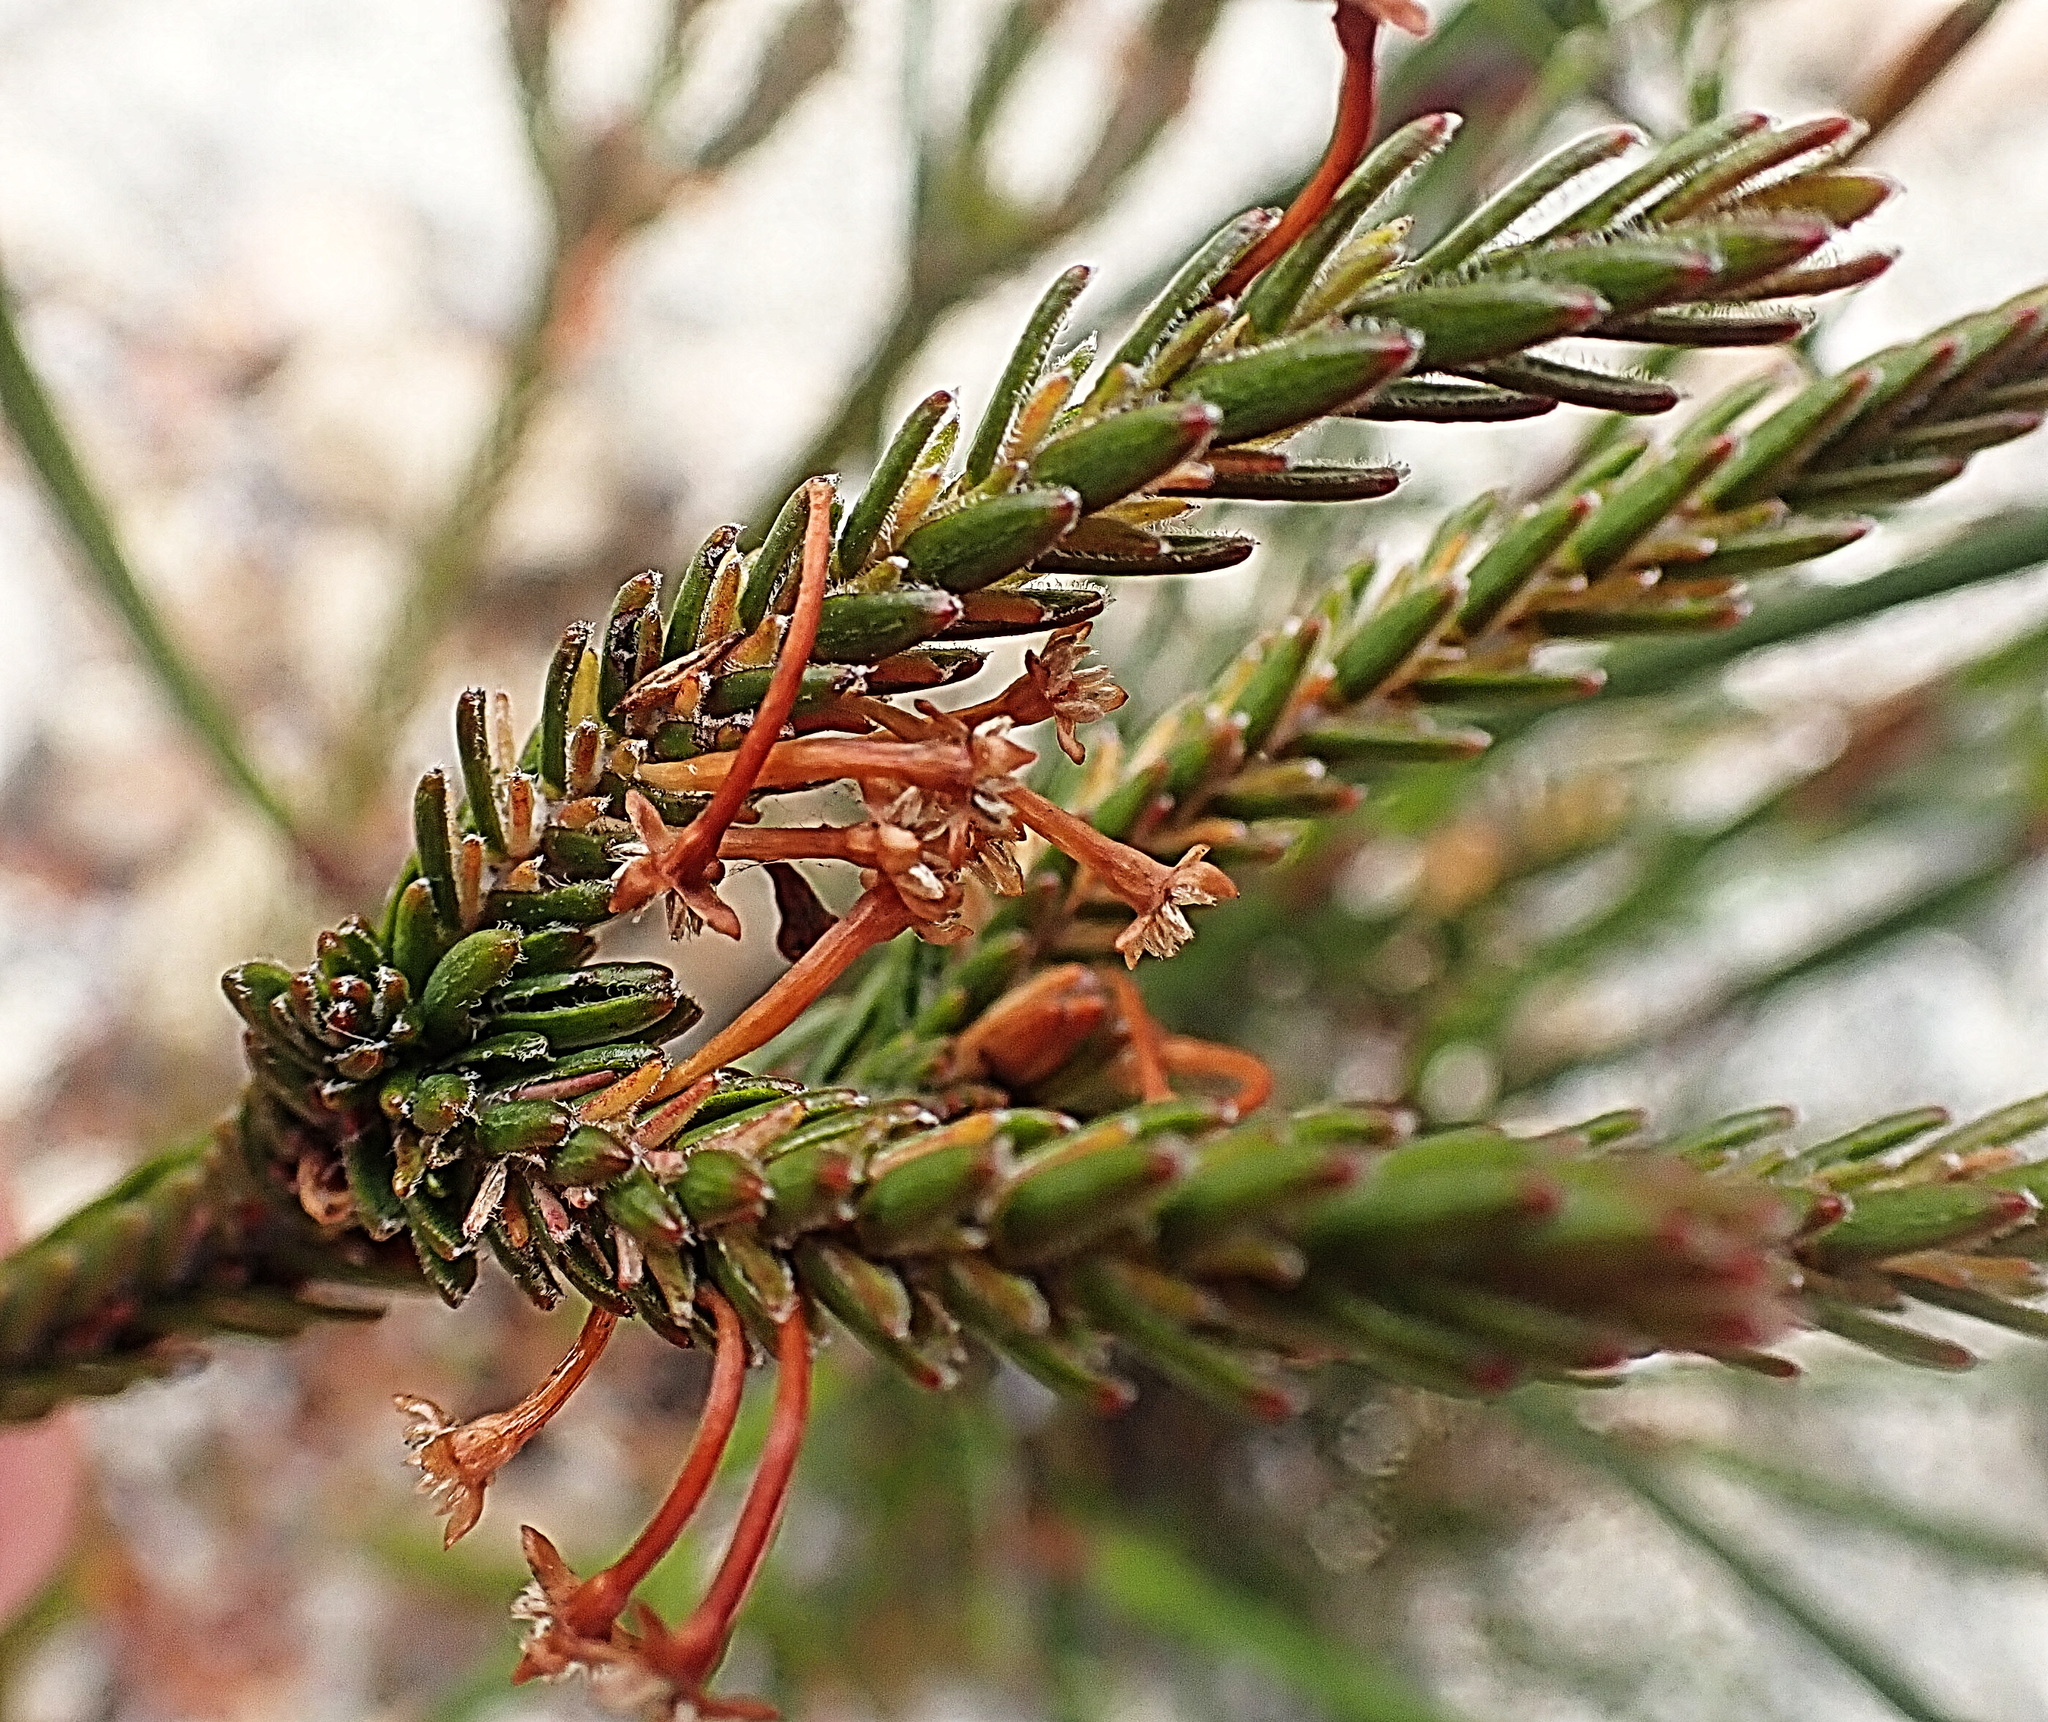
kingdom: Plantae
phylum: Tracheophyta
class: Magnoliopsida
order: Malvales
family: Thymelaeaceae
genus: Struthiola
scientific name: Struthiola ericoides
